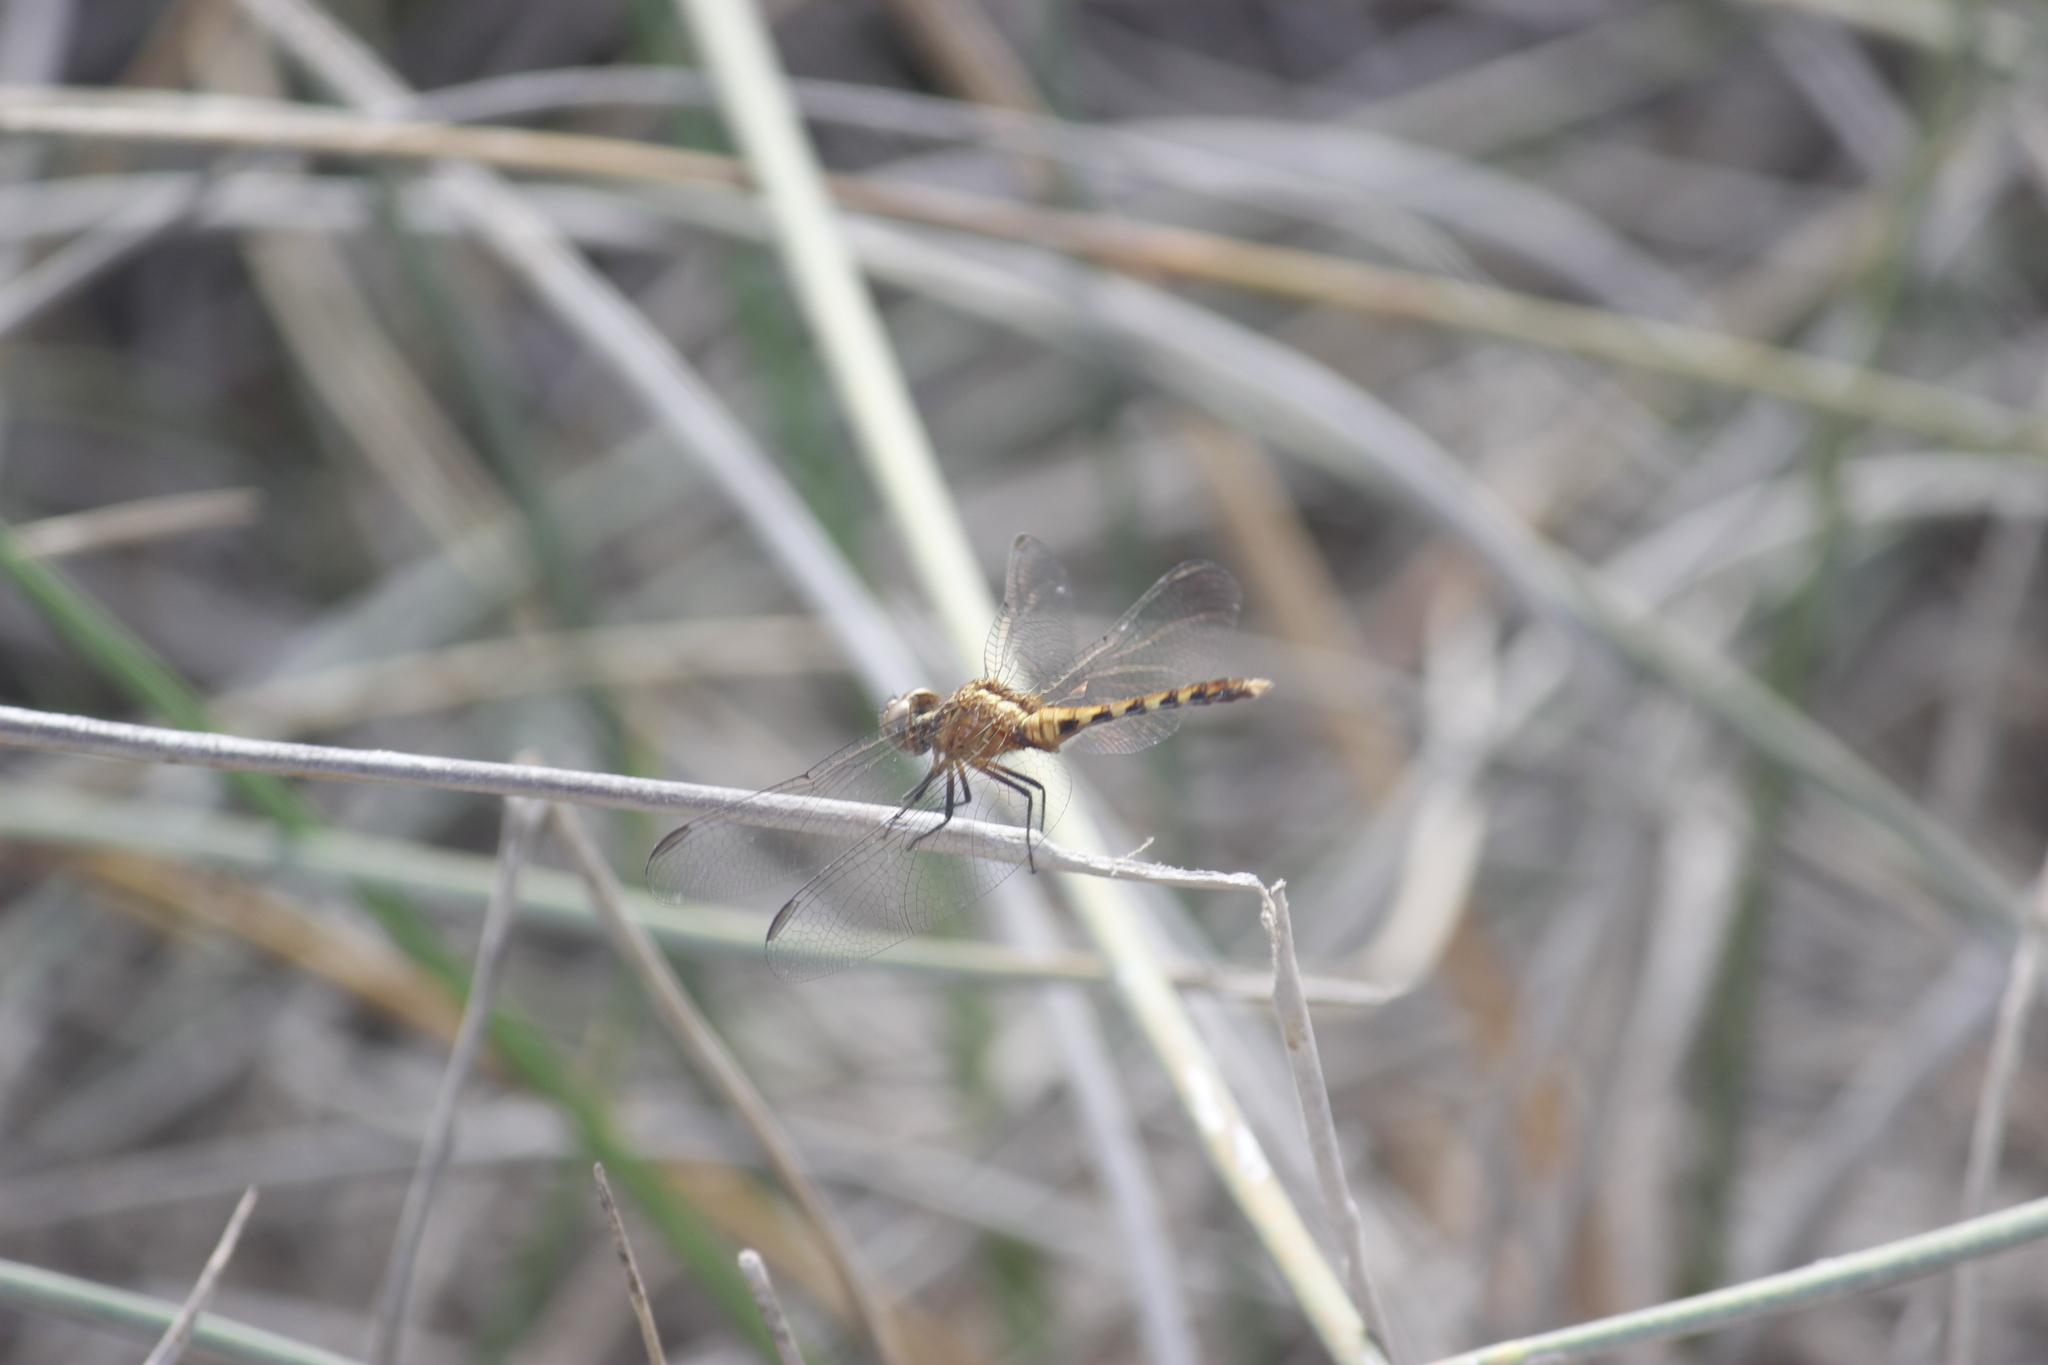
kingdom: Animalia
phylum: Arthropoda
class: Insecta
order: Odonata
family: Libellulidae
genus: Erythrodiplax
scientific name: Erythrodiplax cleopatra
